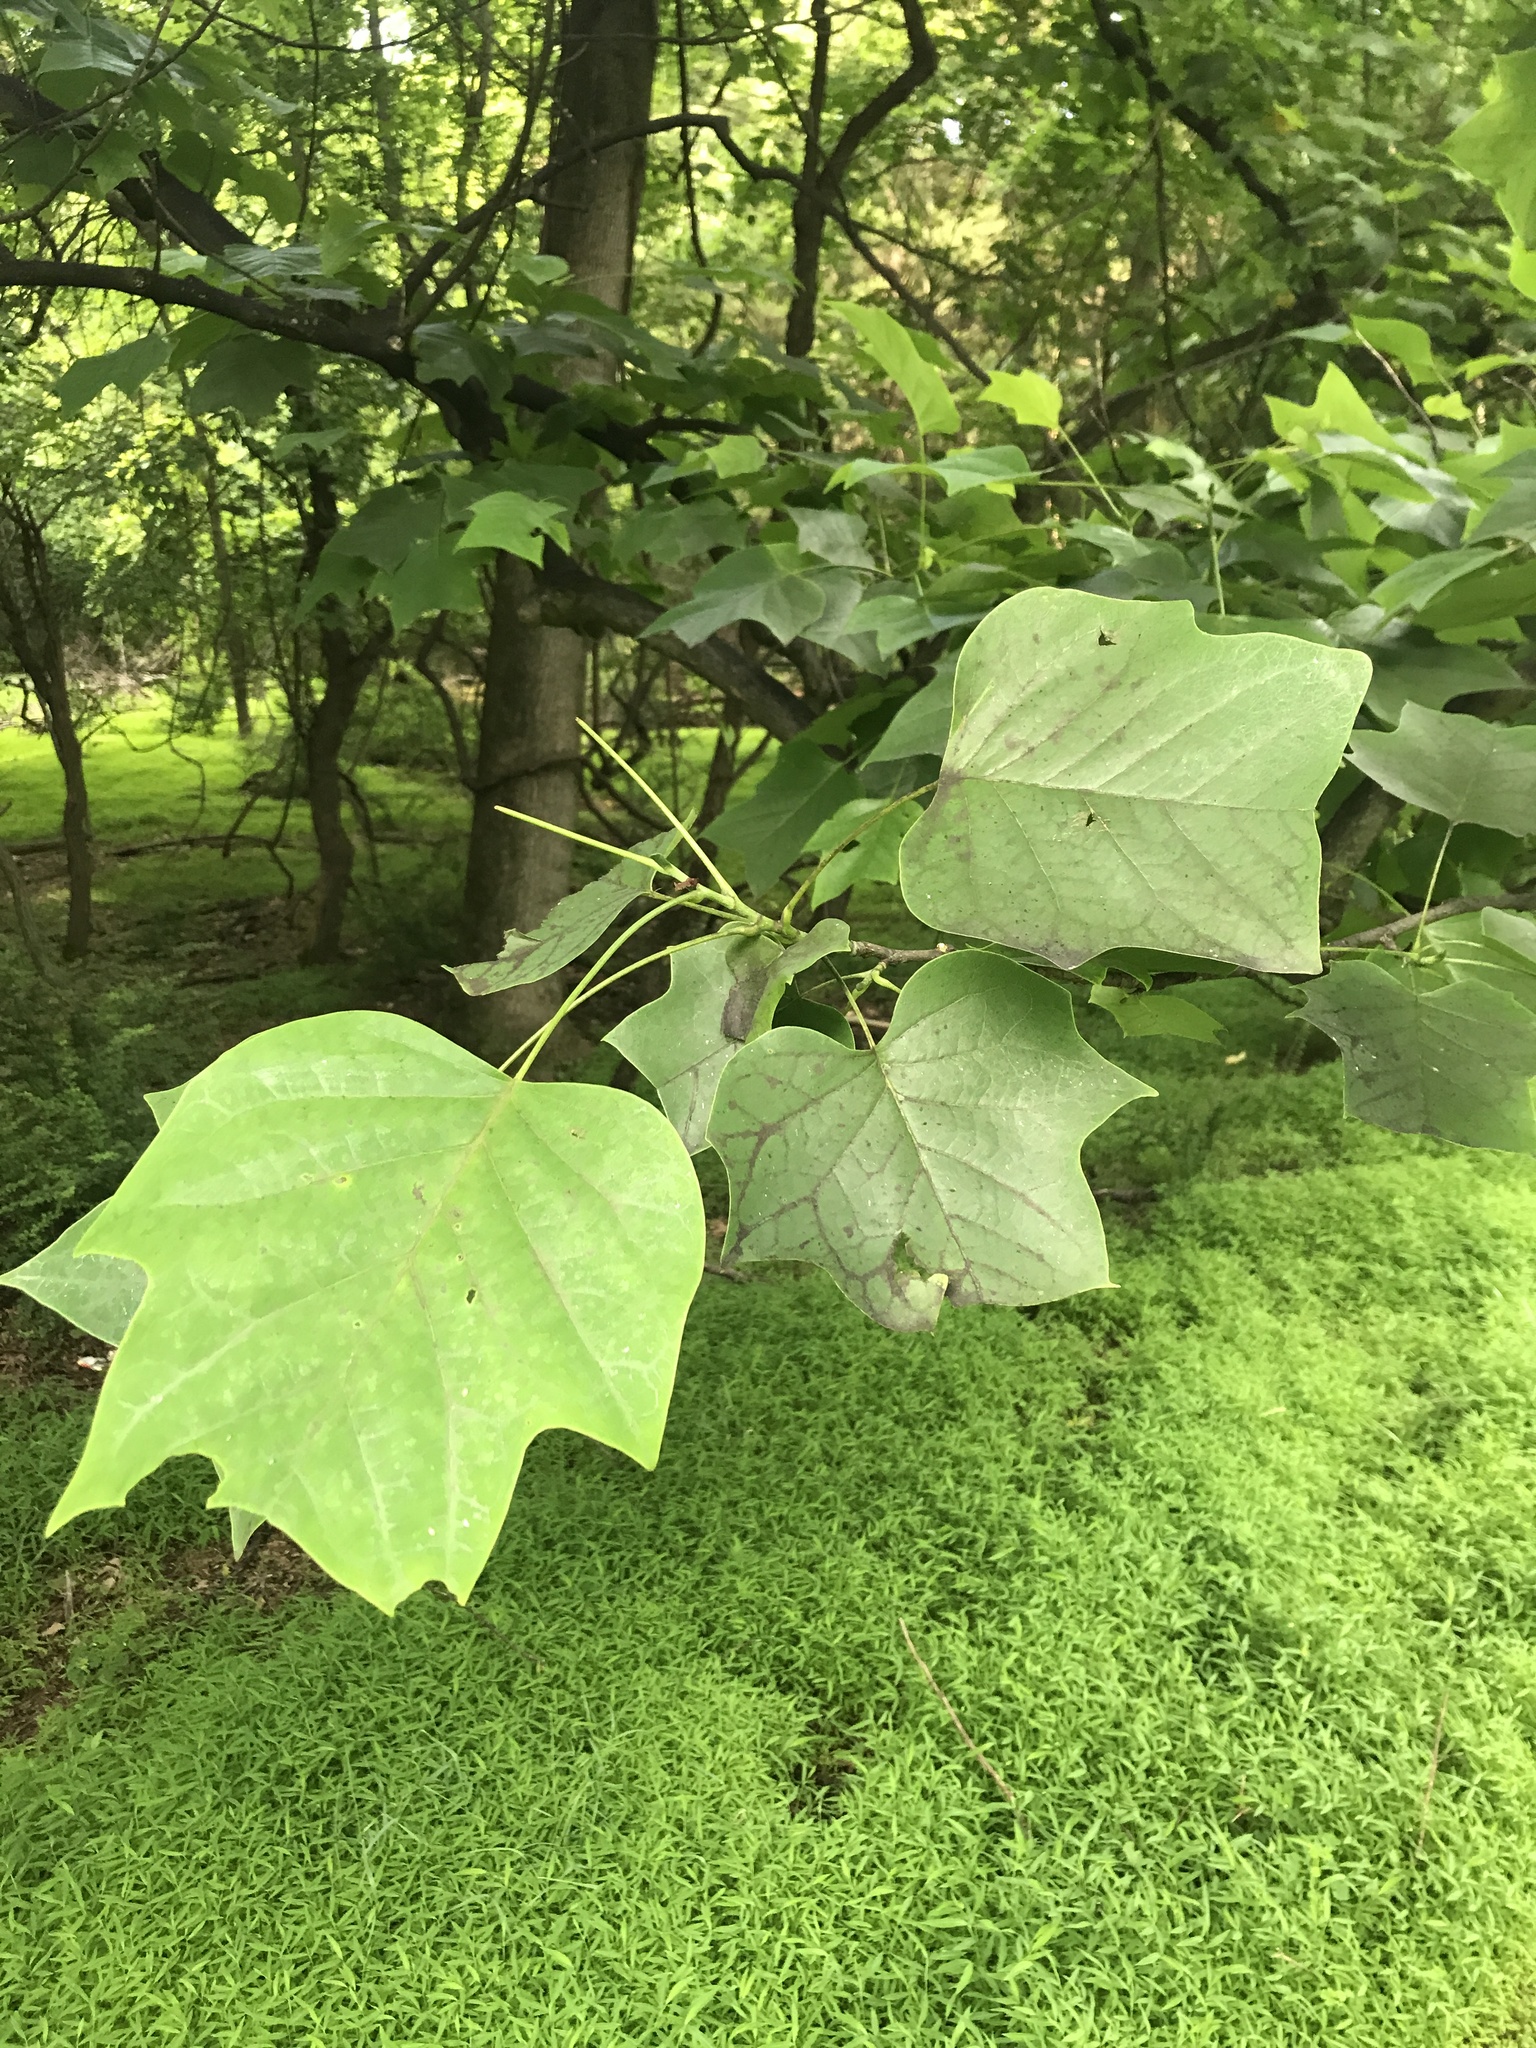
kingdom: Plantae
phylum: Tracheophyta
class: Magnoliopsida
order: Magnoliales
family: Magnoliaceae
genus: Liriodendron
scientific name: Liriodendron tulipifera
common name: Tulip tree
